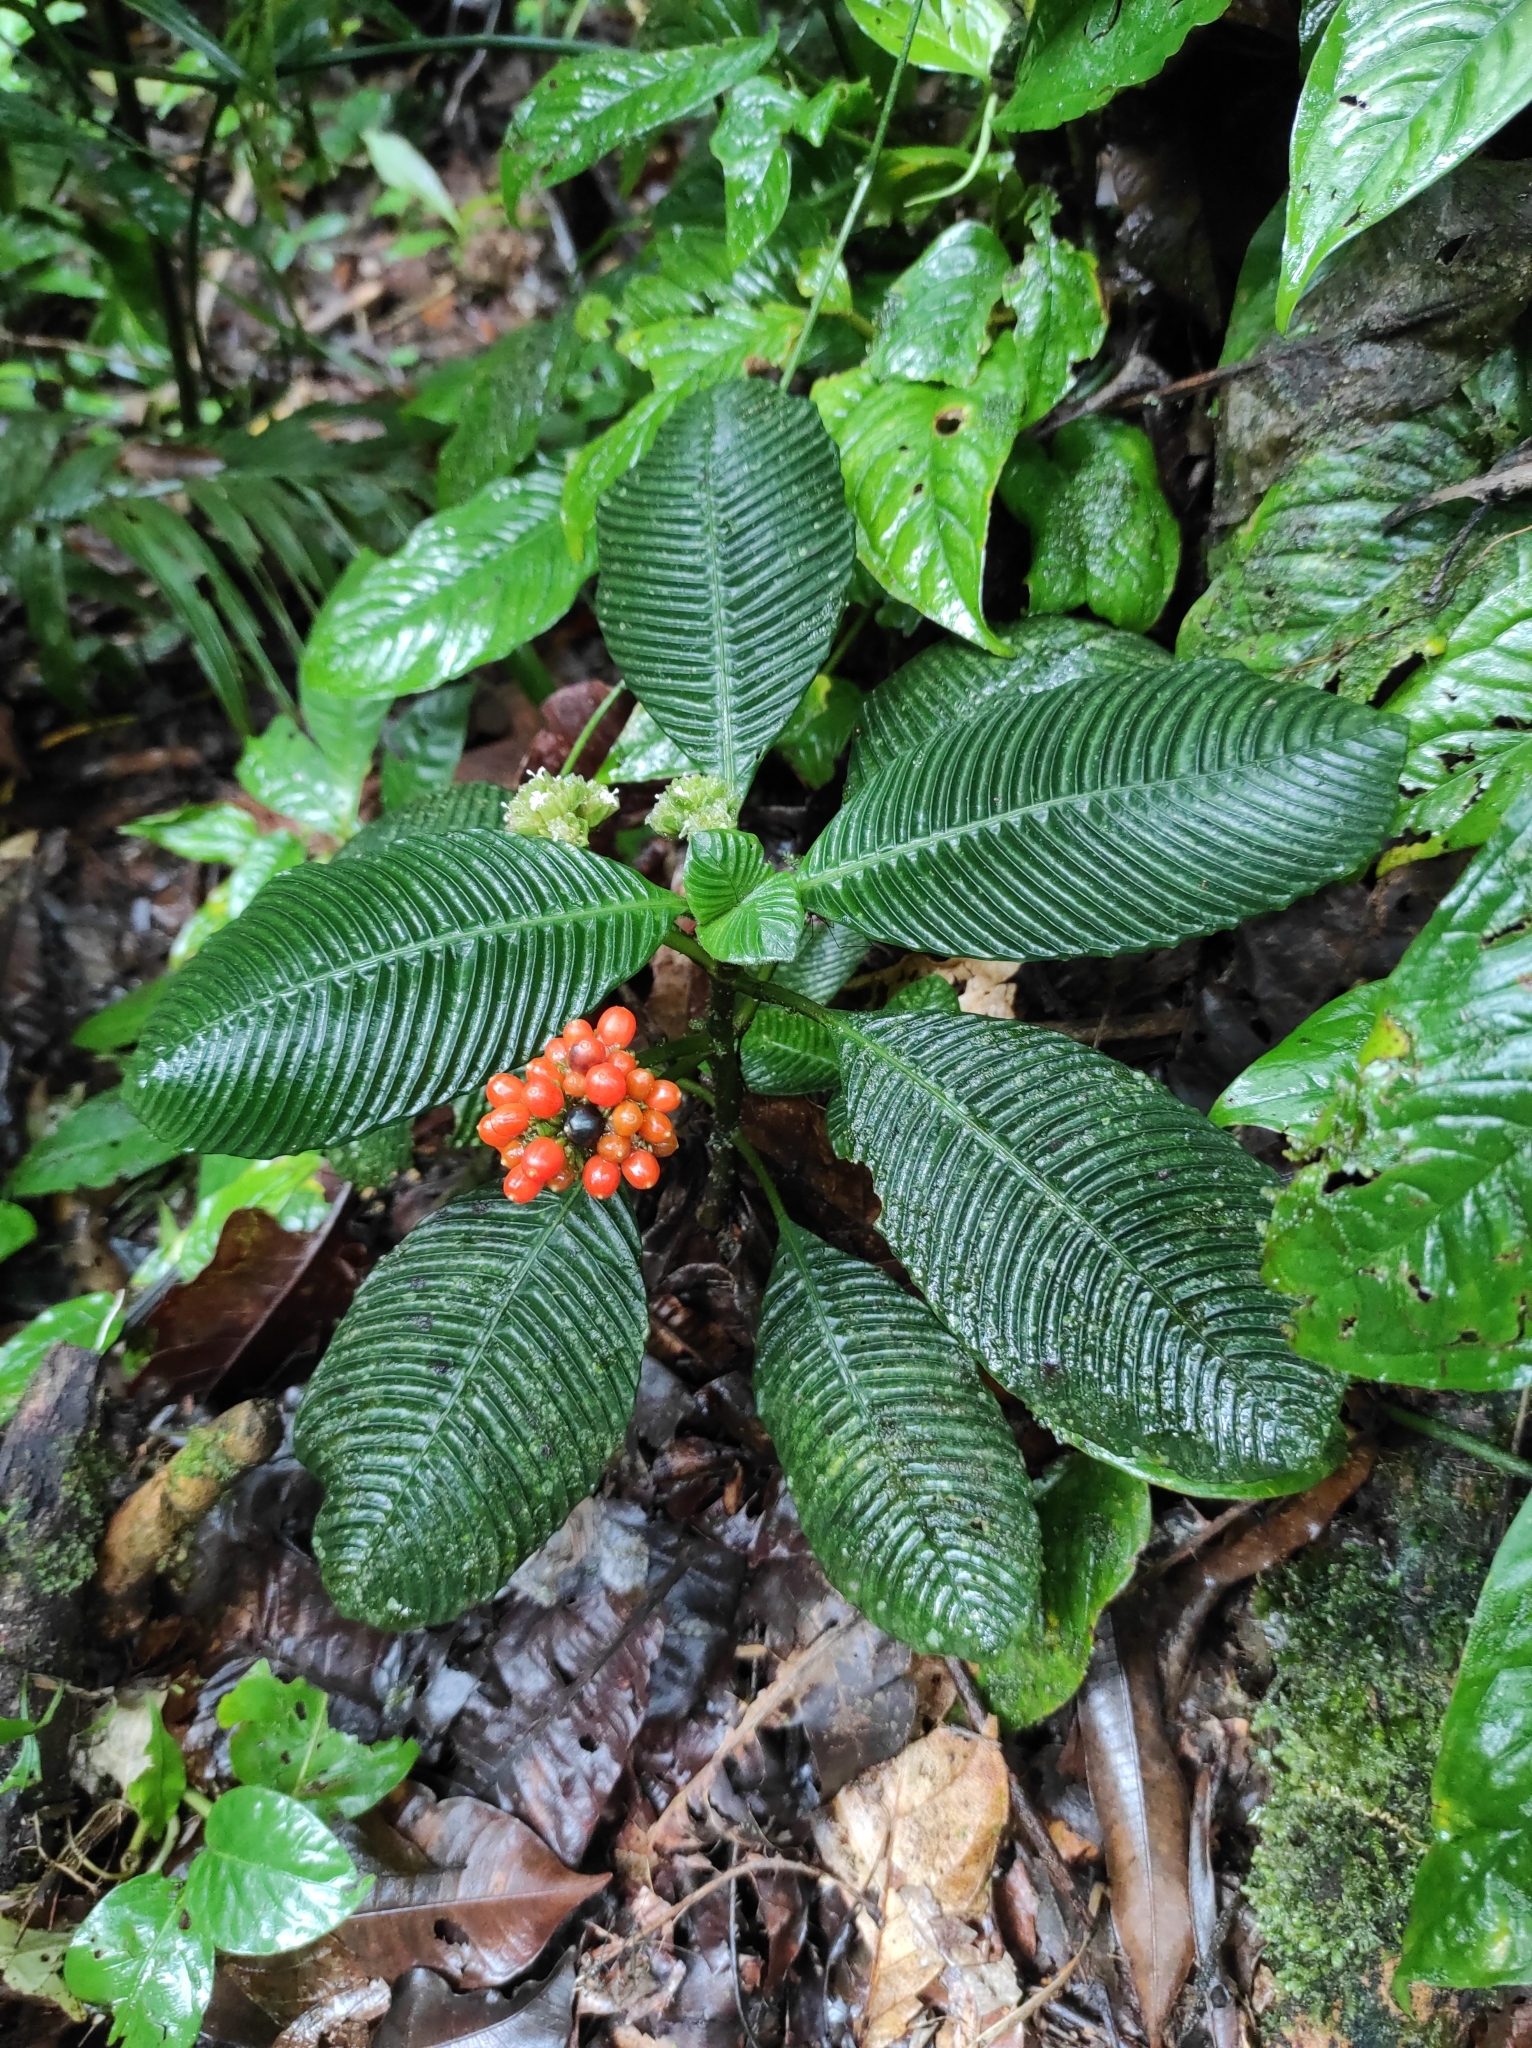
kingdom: Plantae
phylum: Tracheophyta
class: Magnoliopsida
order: Gentianales
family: Rubiaceae
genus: Notopleura
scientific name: Notopleura polyphlebia
